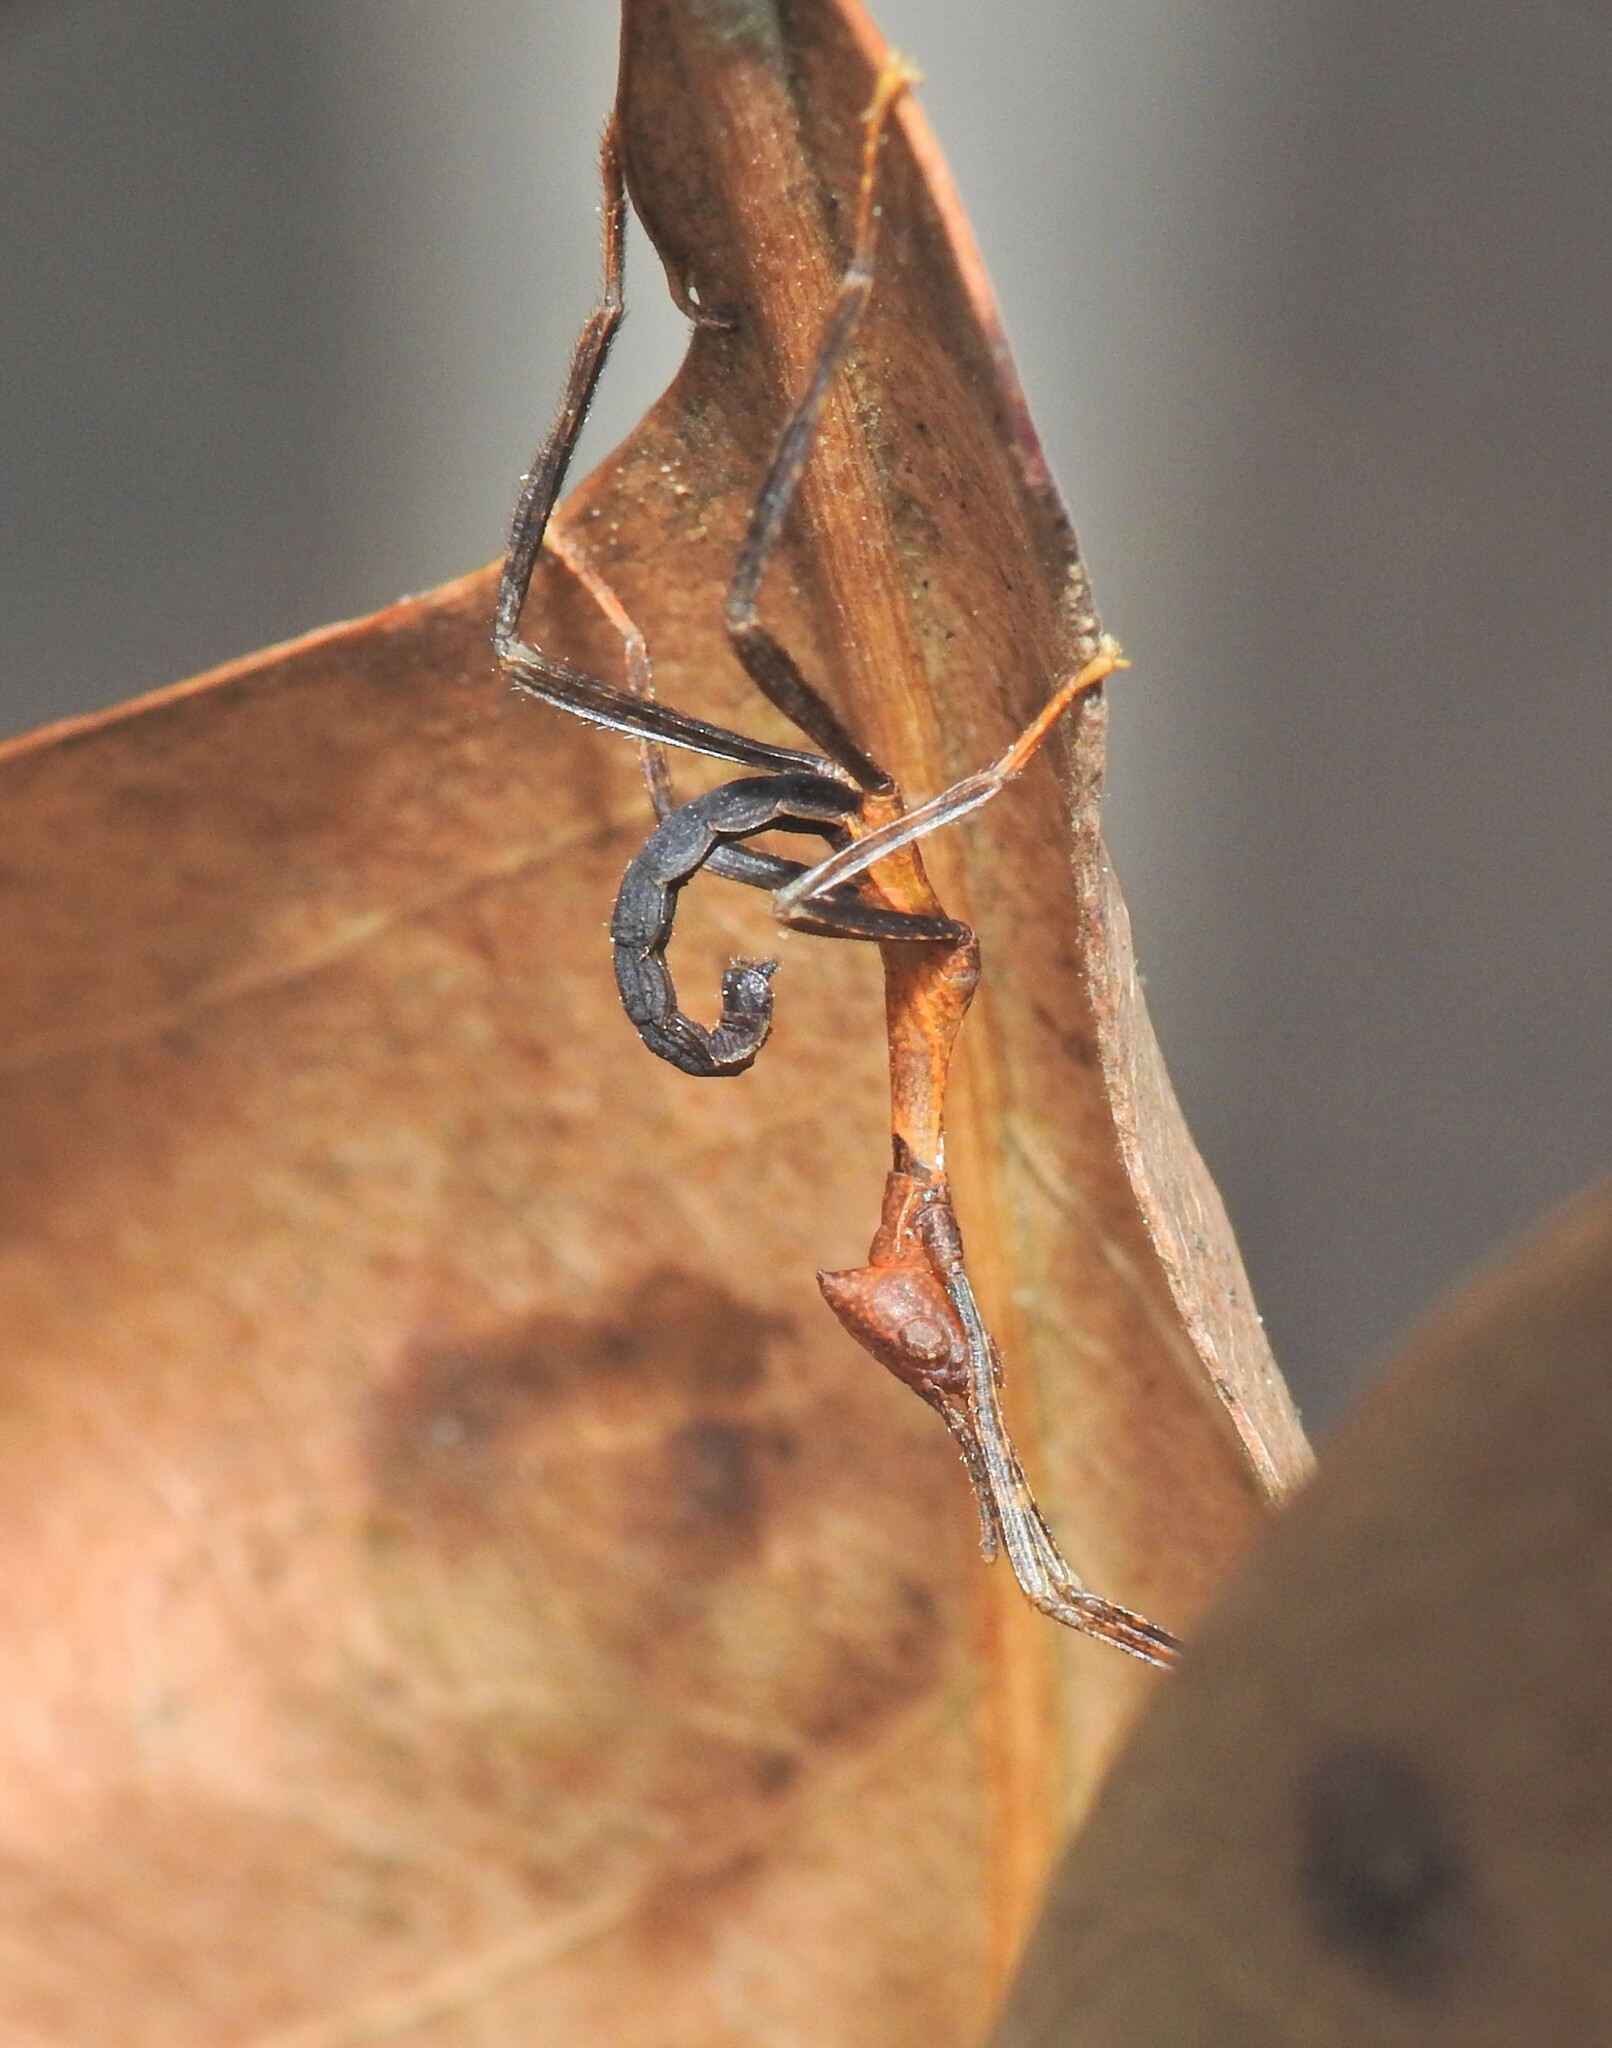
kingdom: Animalia
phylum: Arthropoda
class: Insecta
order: Phasmida
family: Phasmatidae
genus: Extatosoma
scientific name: Extatosoma tiaratum
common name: Macleay's spectre
